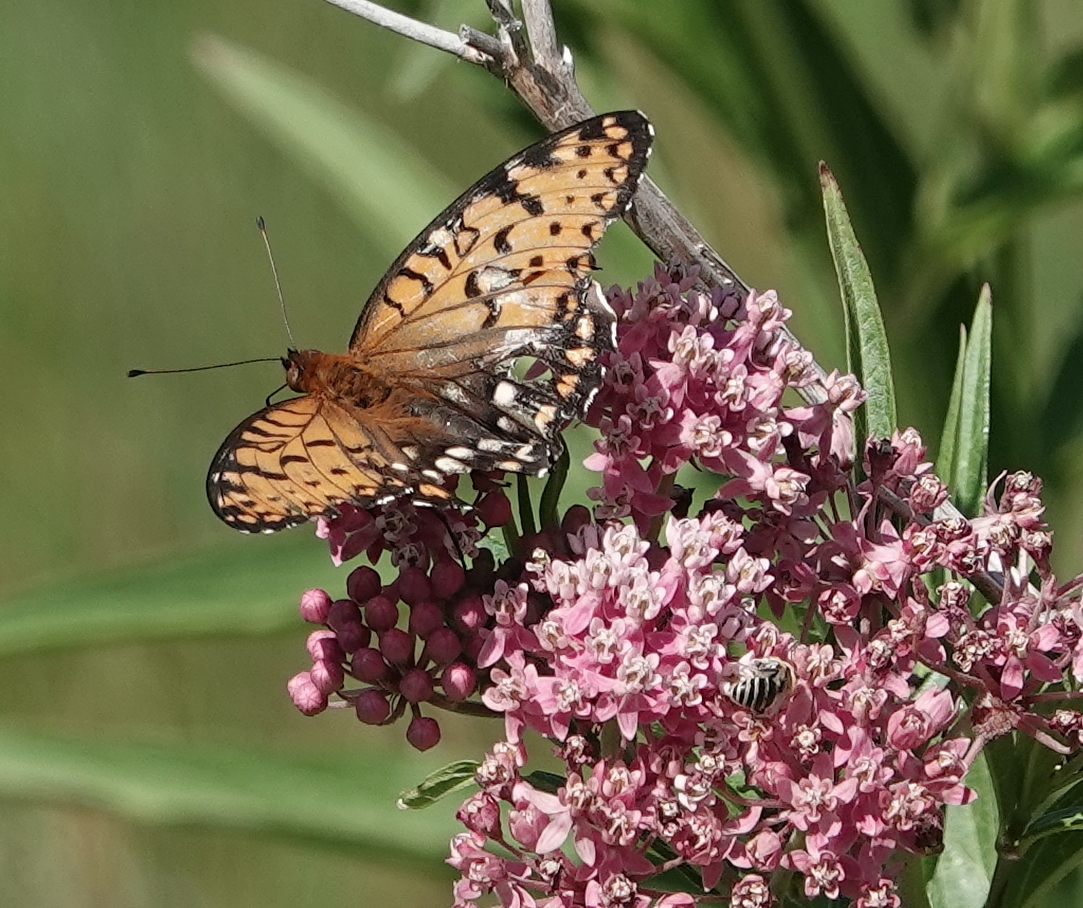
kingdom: Animalia
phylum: Arthropoda
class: Insecta
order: Lepidoptera
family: Nymphalidae
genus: Speyeria
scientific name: Speyeria idalia
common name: Regal fritillary
